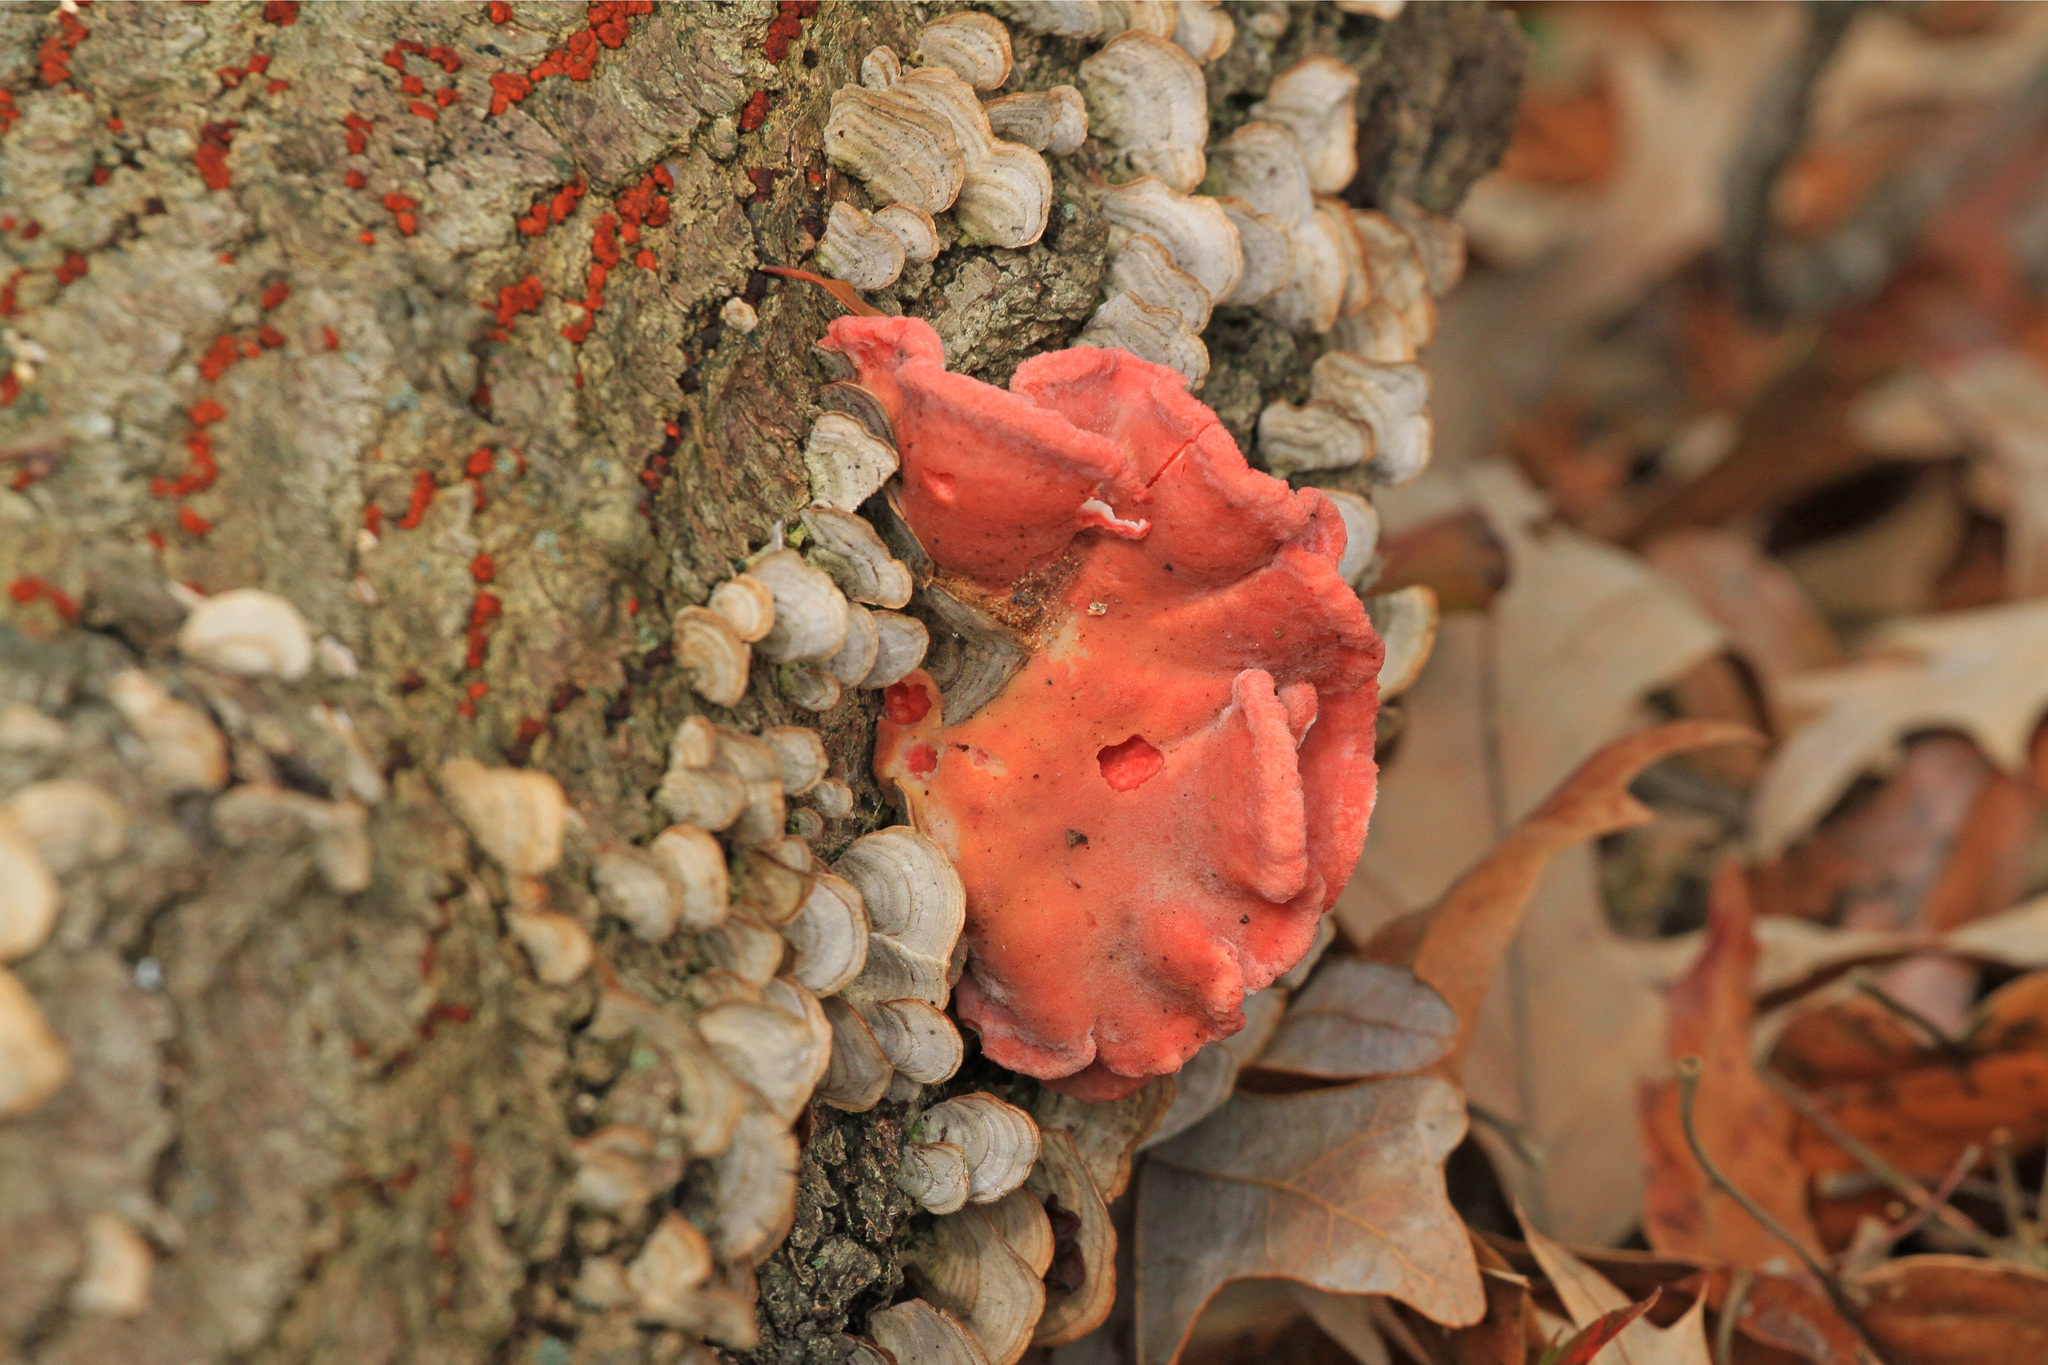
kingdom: Fungi
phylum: Basidiomycota
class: Agaricomycetes
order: Polyporales
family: Polyporaceae
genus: Trametes
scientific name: Trametes coccinea
